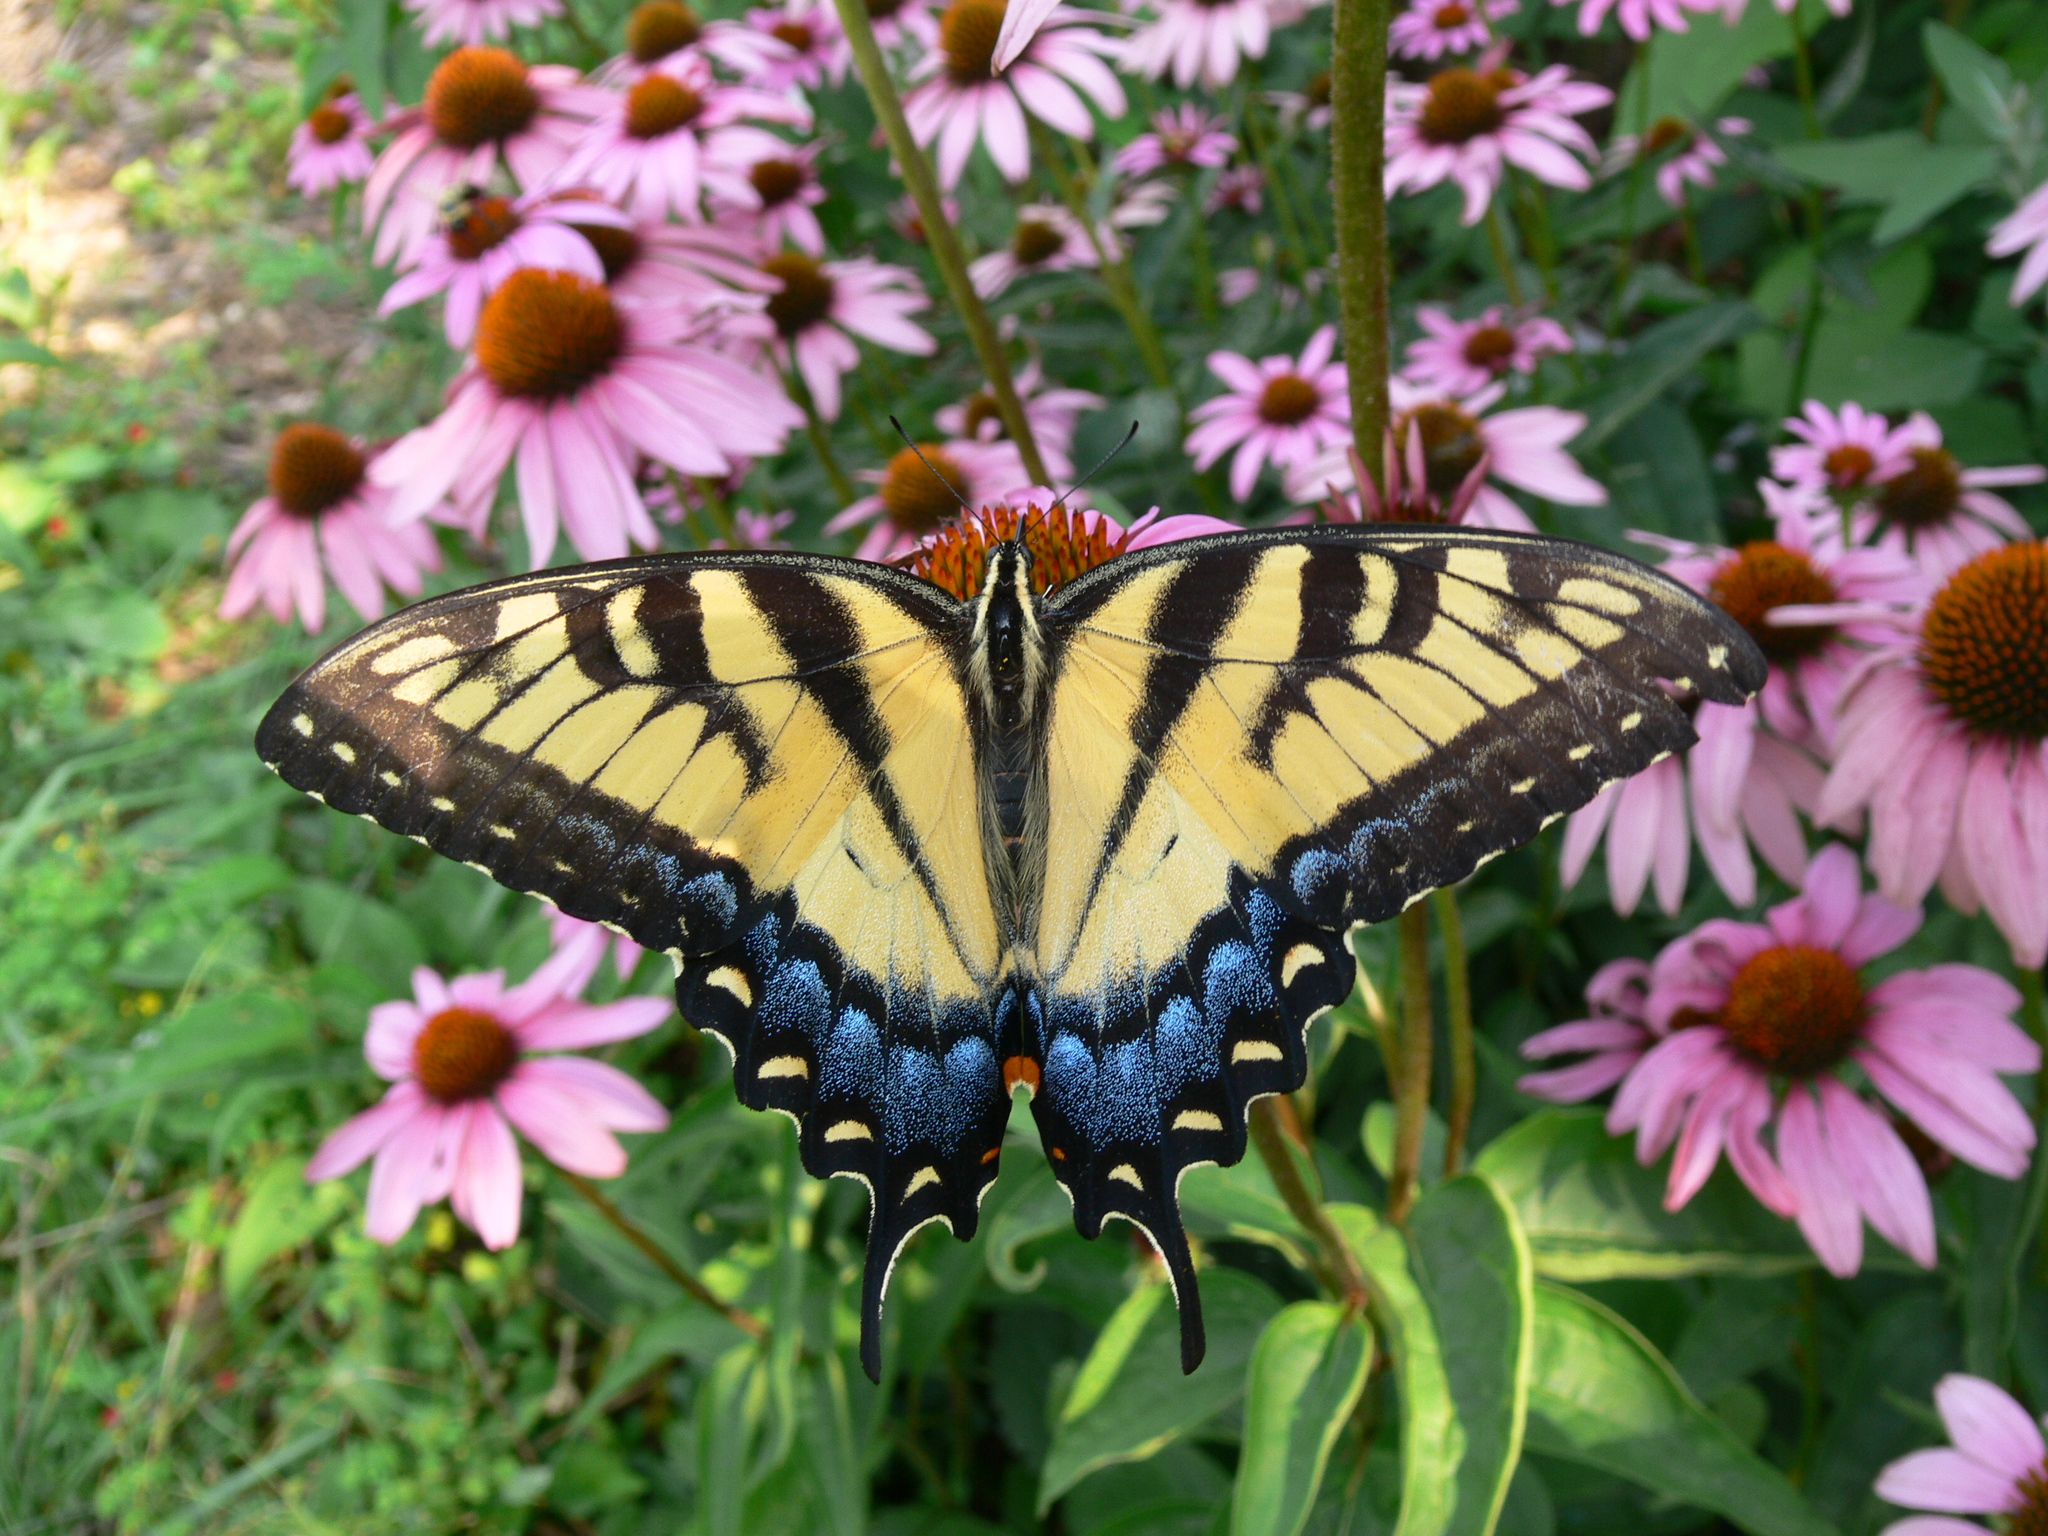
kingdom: Animalia
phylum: Arthropoda
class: Insecta
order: Lepidoptera
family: Papilionidae
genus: Papilio
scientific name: Papilio glaucus
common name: Tiger swallowtail
